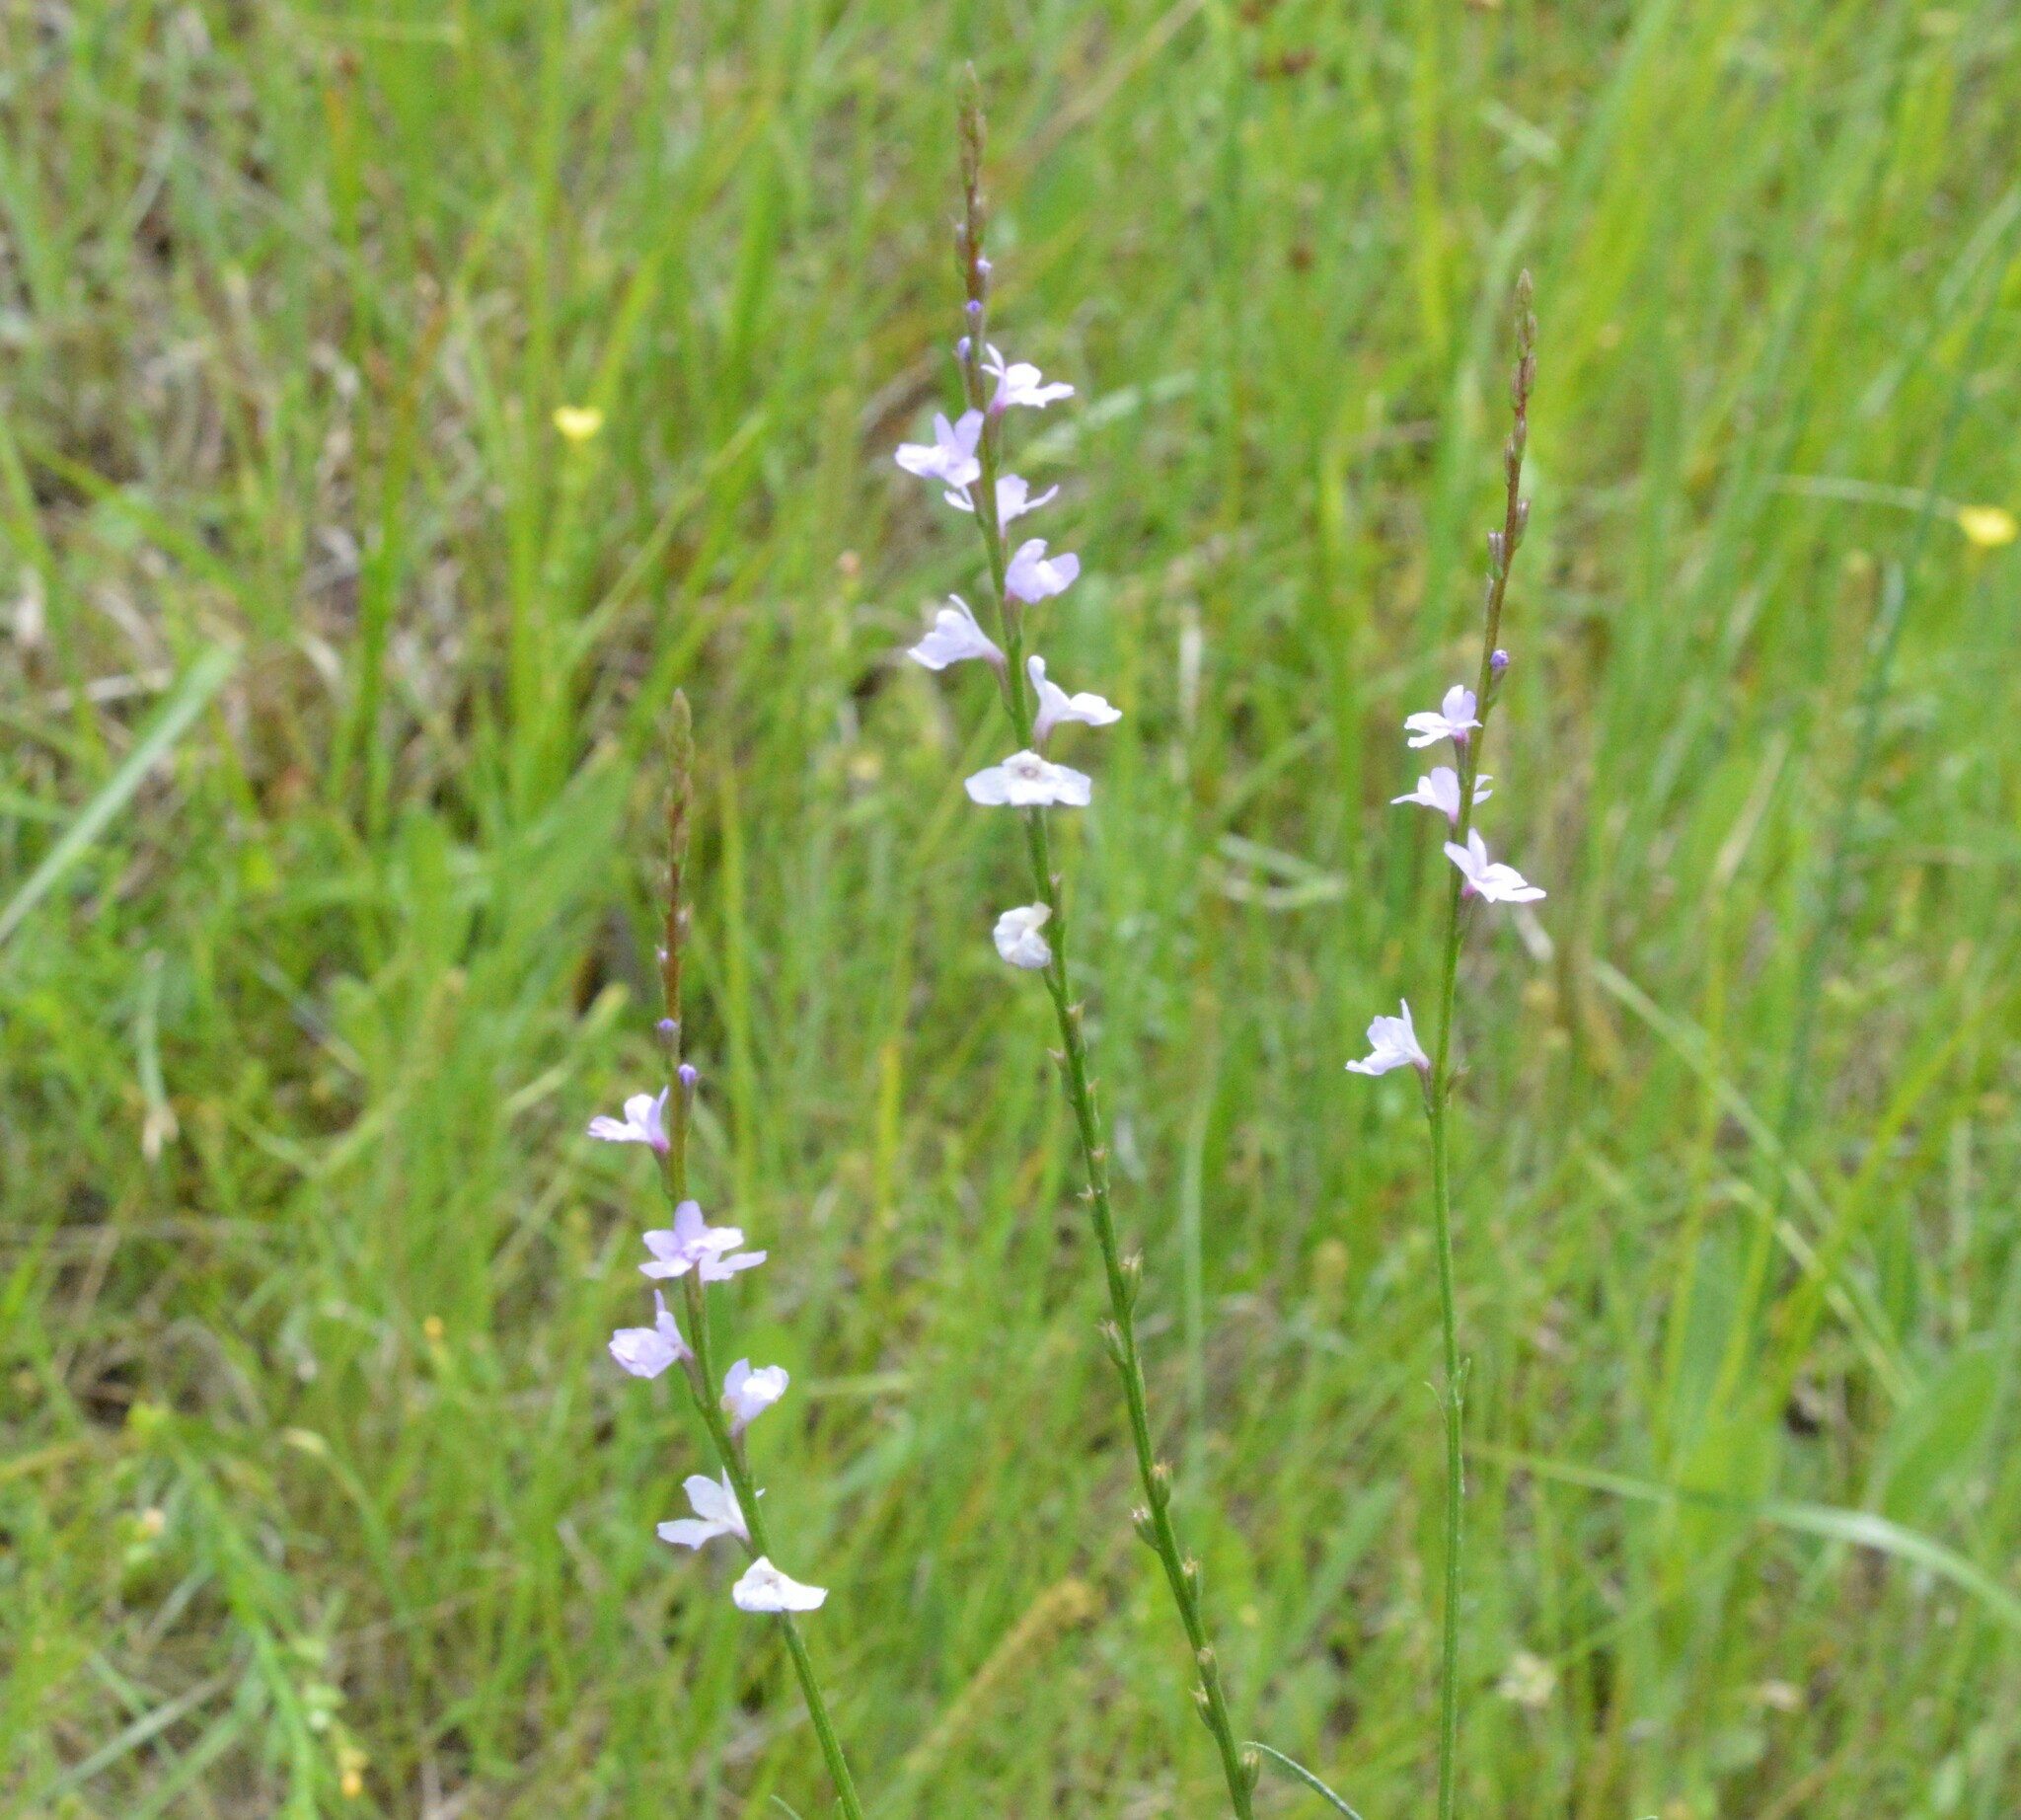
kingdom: Plantae
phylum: Tracheophyta
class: Magnoliopsida
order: Lamiales
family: Verbenaceae
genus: Verbena
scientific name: Verbena halei
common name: Texas vervain
